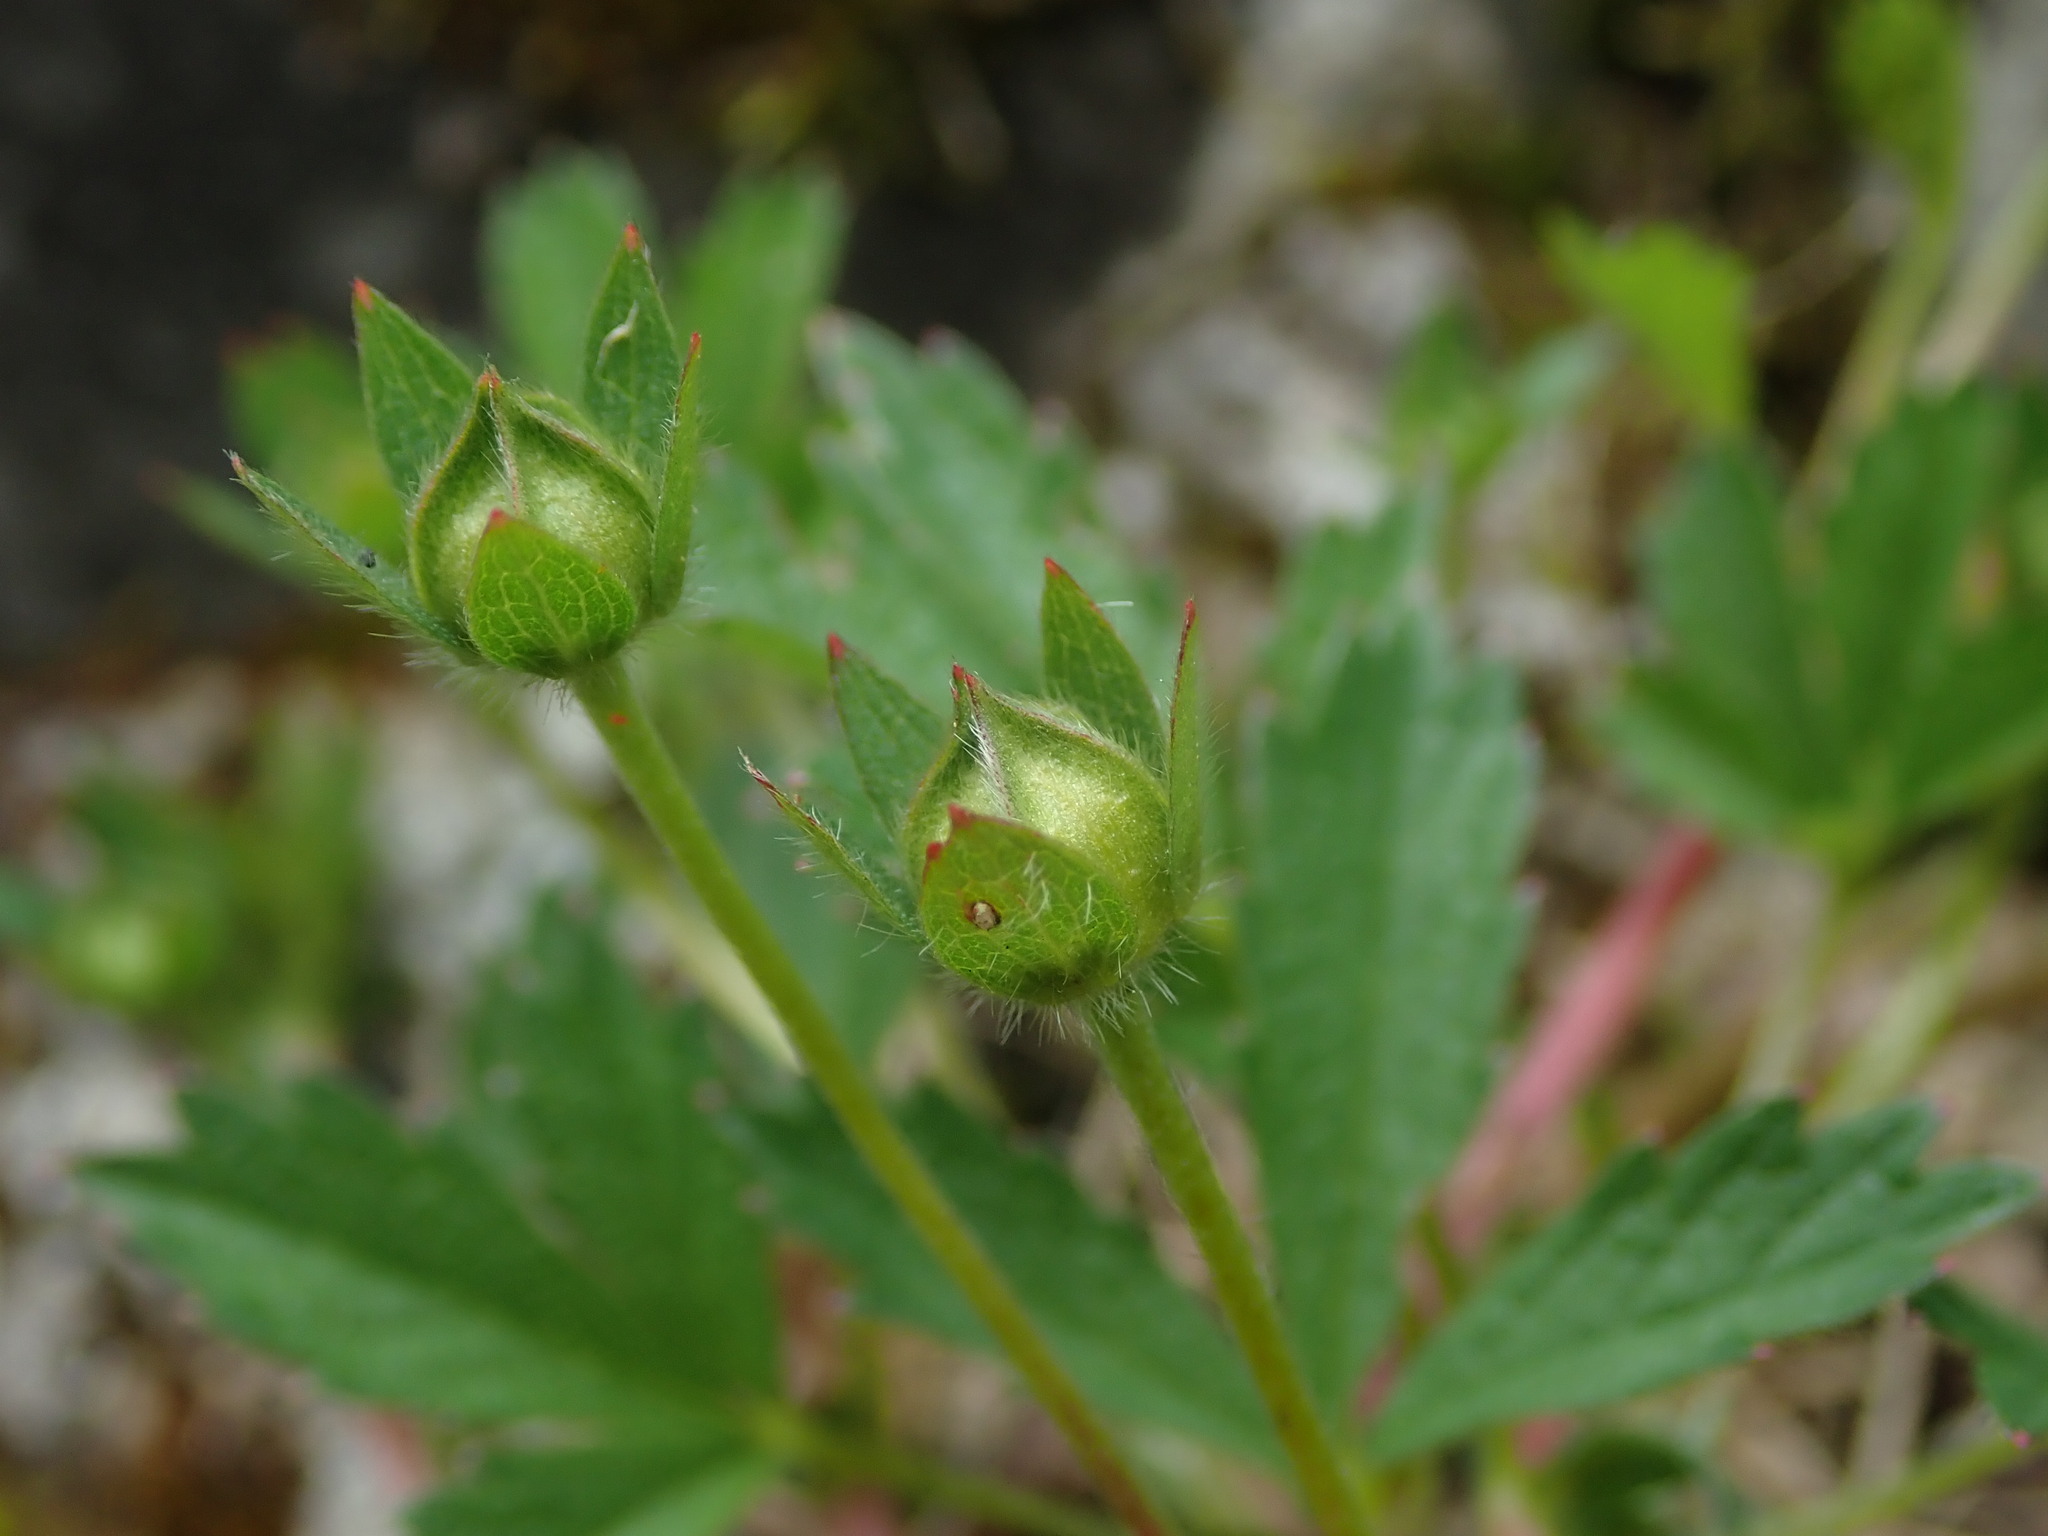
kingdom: Plantae
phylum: Tracheophyta
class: Magnoliopsida
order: Rosales
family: Rosaceae
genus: Potentilla
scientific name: Potentilla reptans
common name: Creeping cinquefoil
